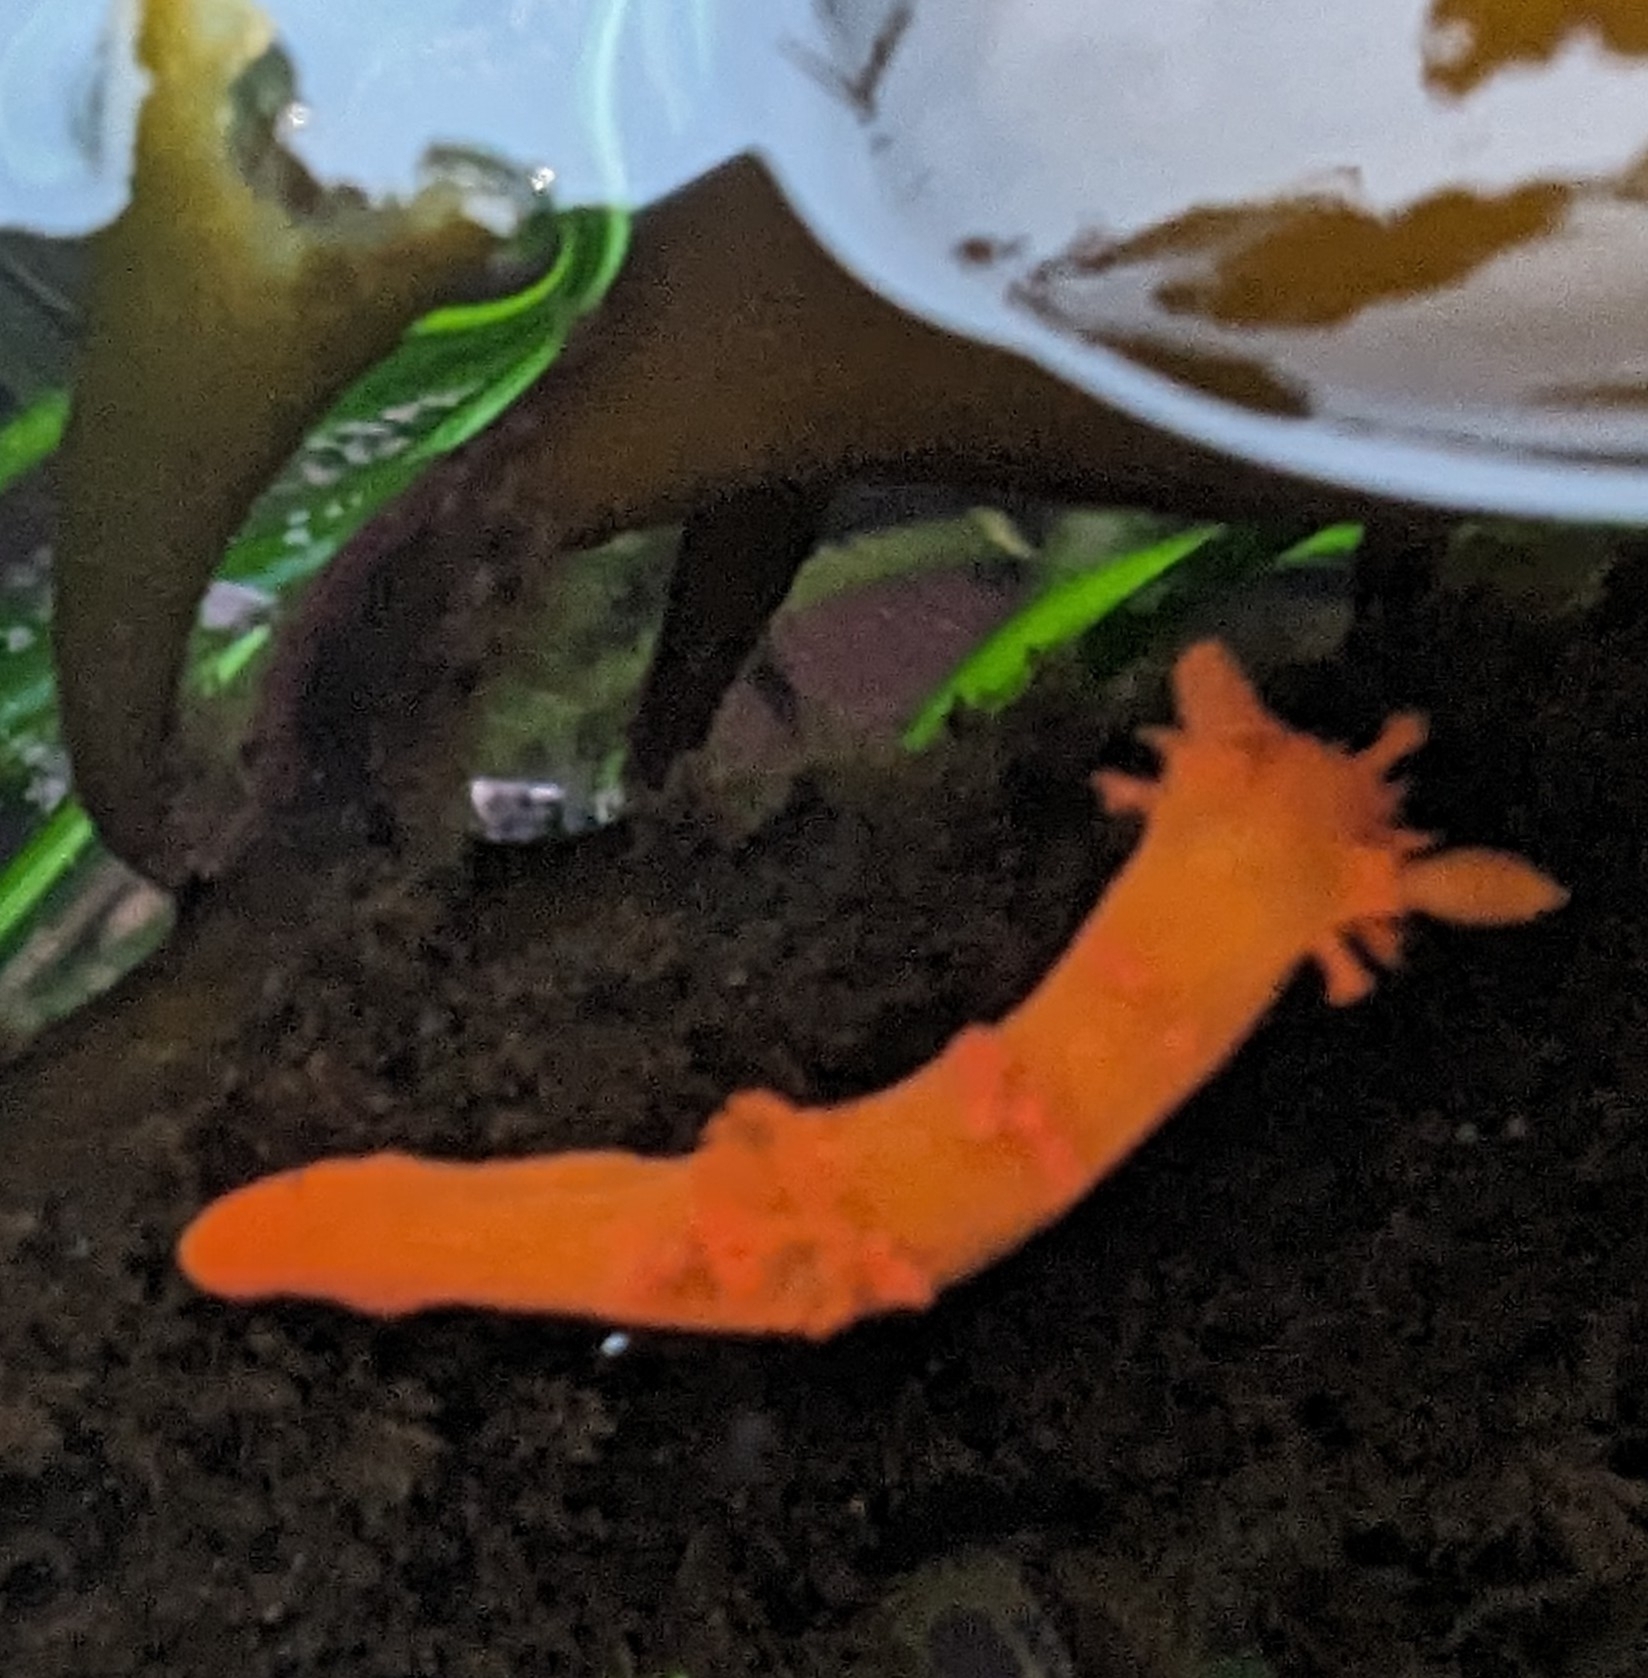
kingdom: Animalia
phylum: Mollusca
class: Gastropoda
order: Nudibranchia
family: Polyceridae
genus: Triopha
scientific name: Triopha maculata
